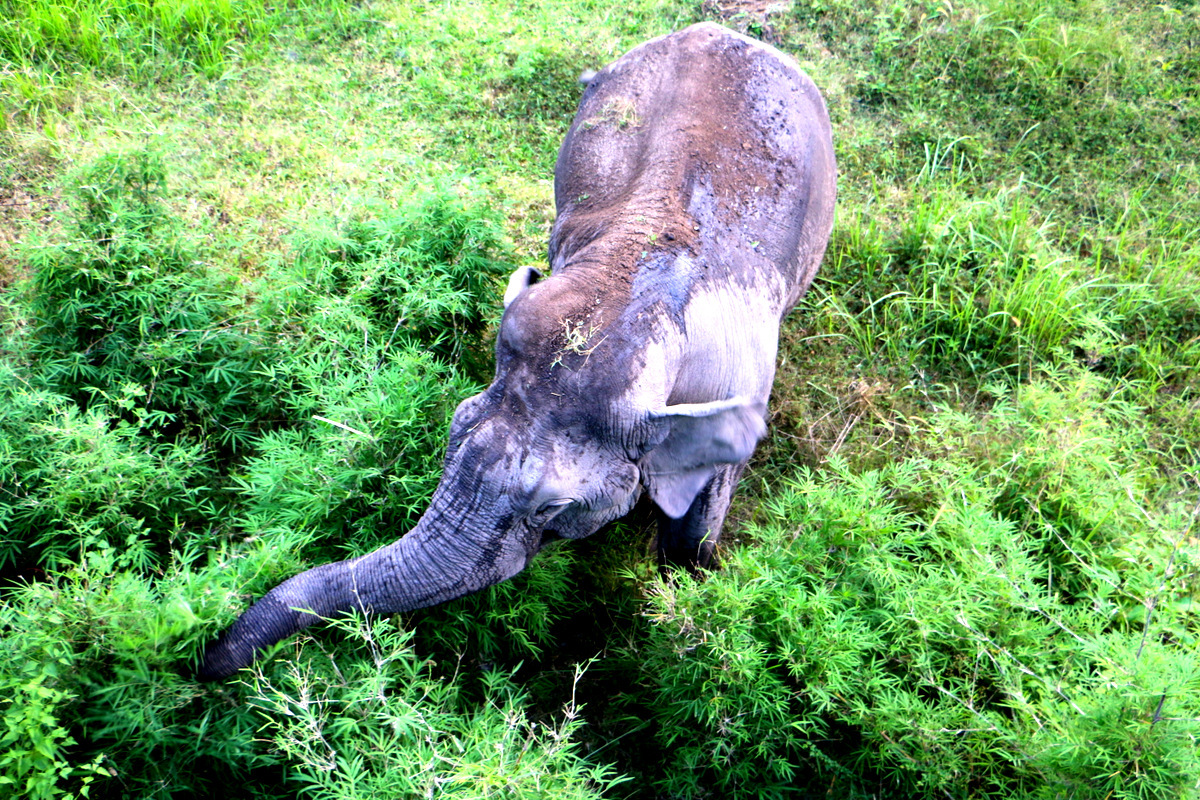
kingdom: Animalia
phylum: Chordata
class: Mammalia
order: Proboscidea
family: Elephantidae
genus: Elephas
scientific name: Elephas maximus
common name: Asian elephant
